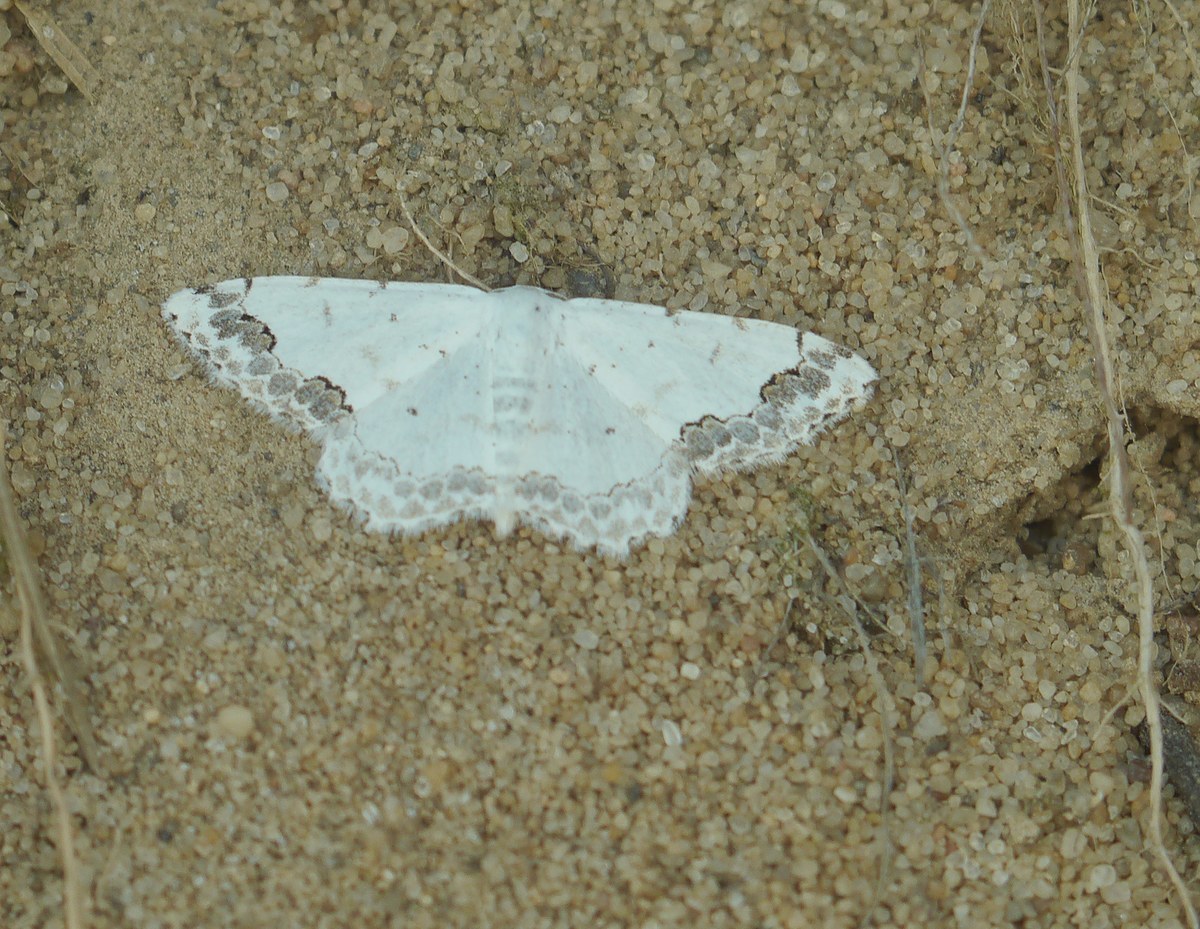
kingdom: Animalia
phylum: Arthropoda
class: Insecta
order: Lepidoptera
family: Geometridae
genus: Scopula
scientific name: Scopula decorata
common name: Middle lace border
